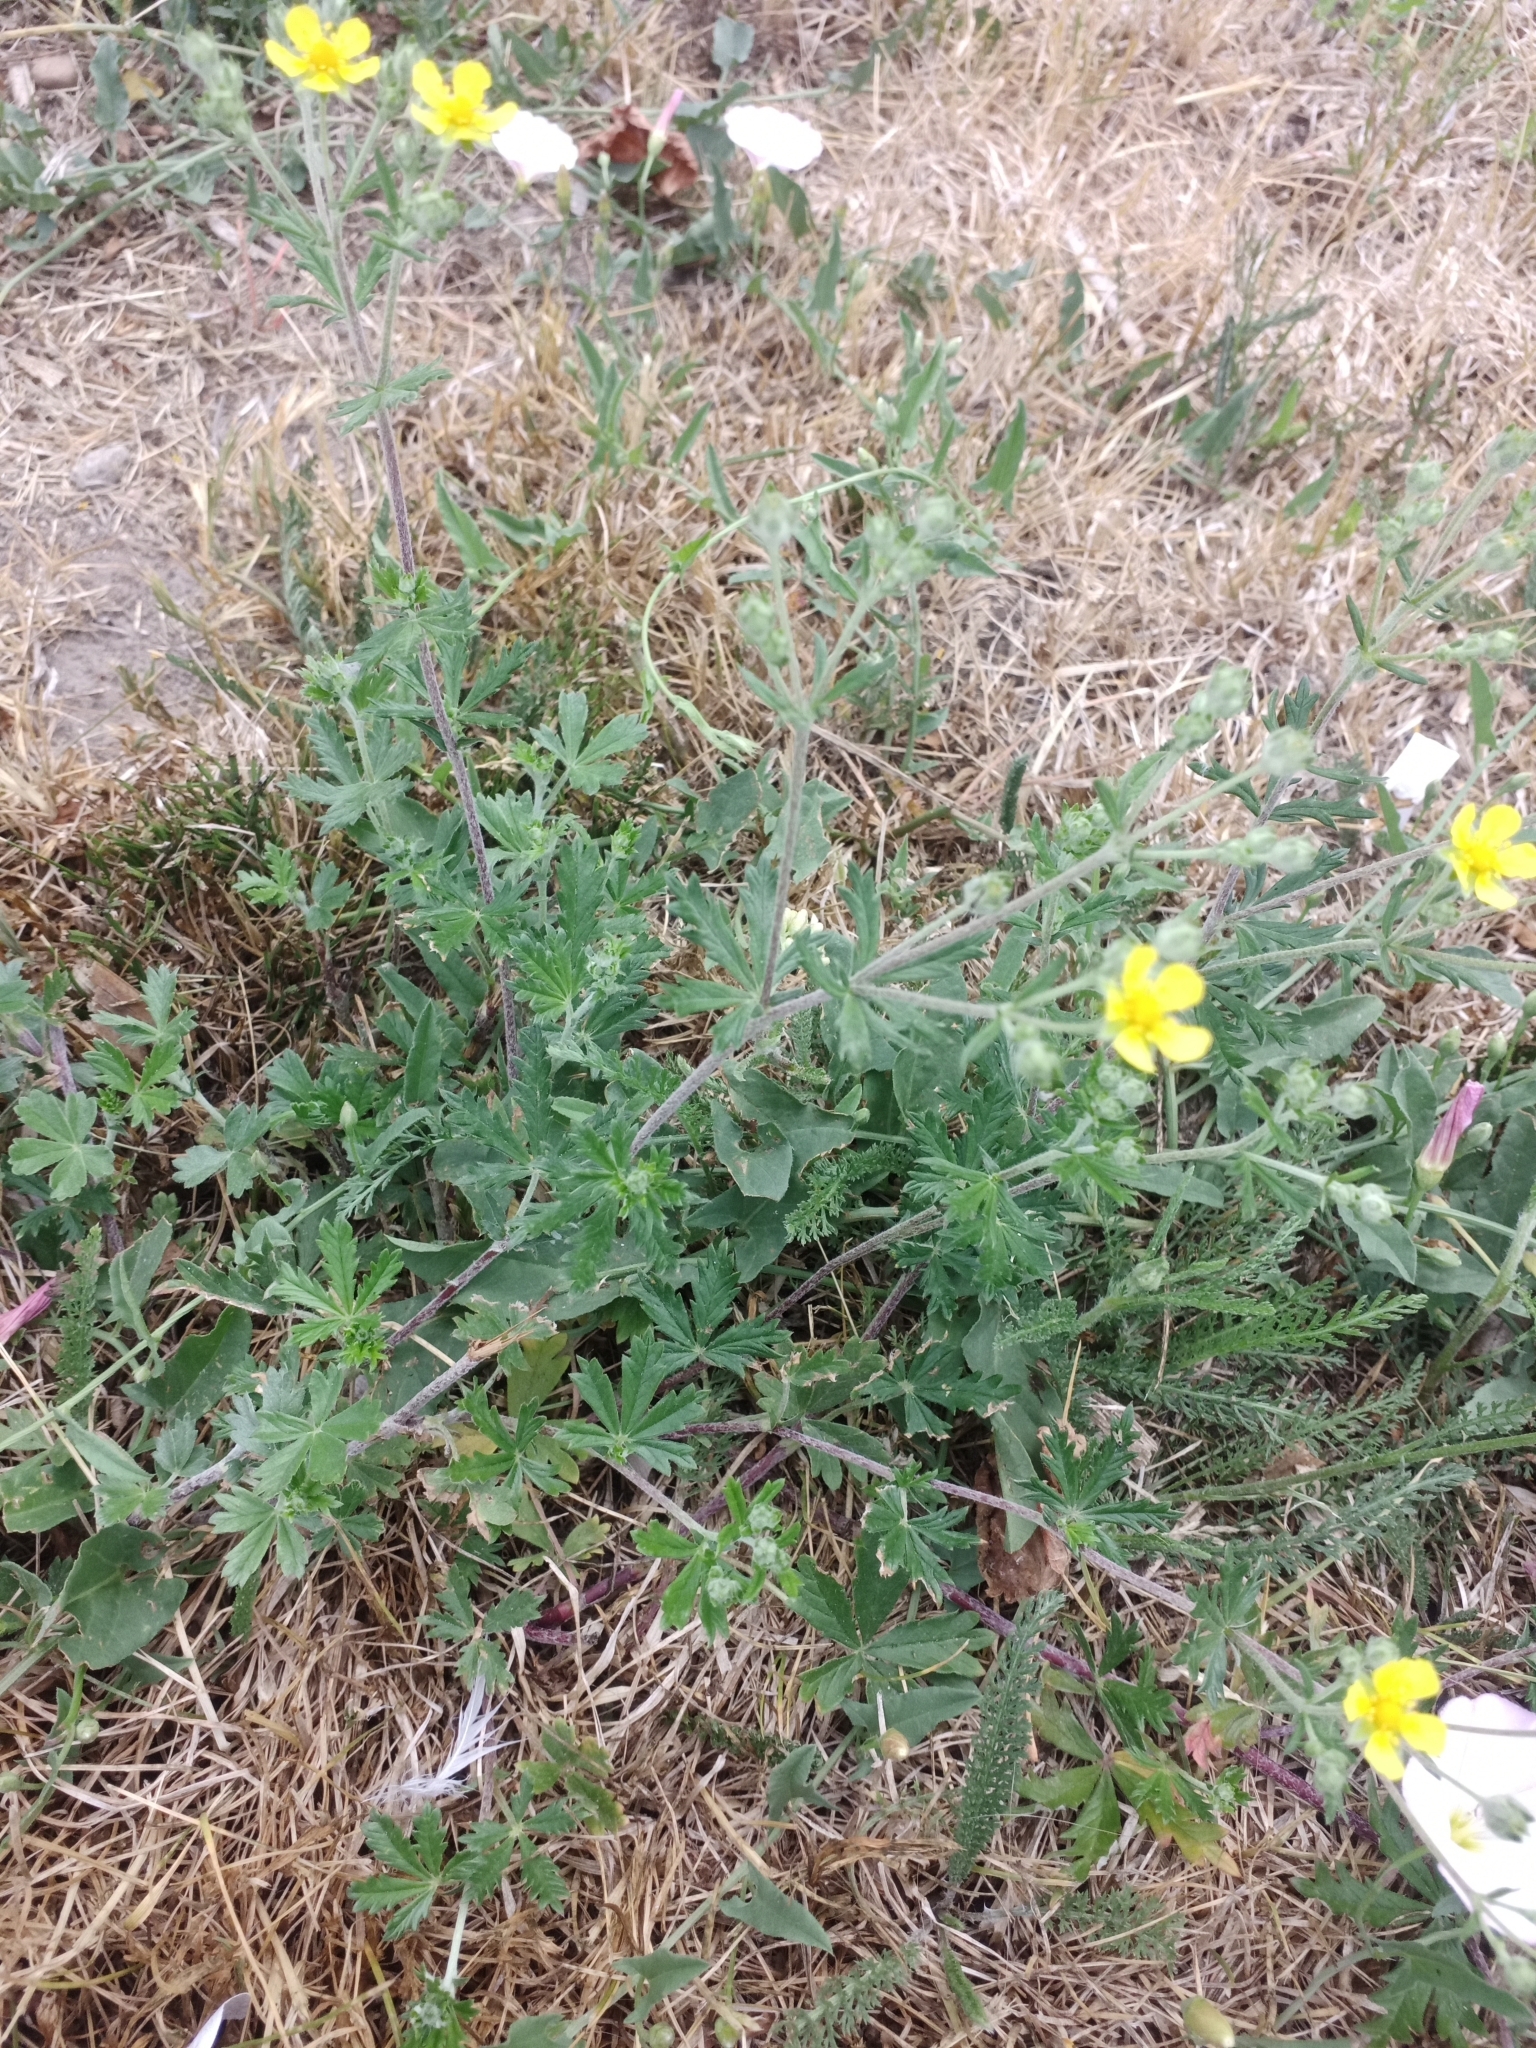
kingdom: Plantae
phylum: Tracheophyta
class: Magnoliopsida
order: Rosales
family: Rosaceae
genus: Potentilla
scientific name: Potentilla argentea
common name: Hoary cinquefoil
